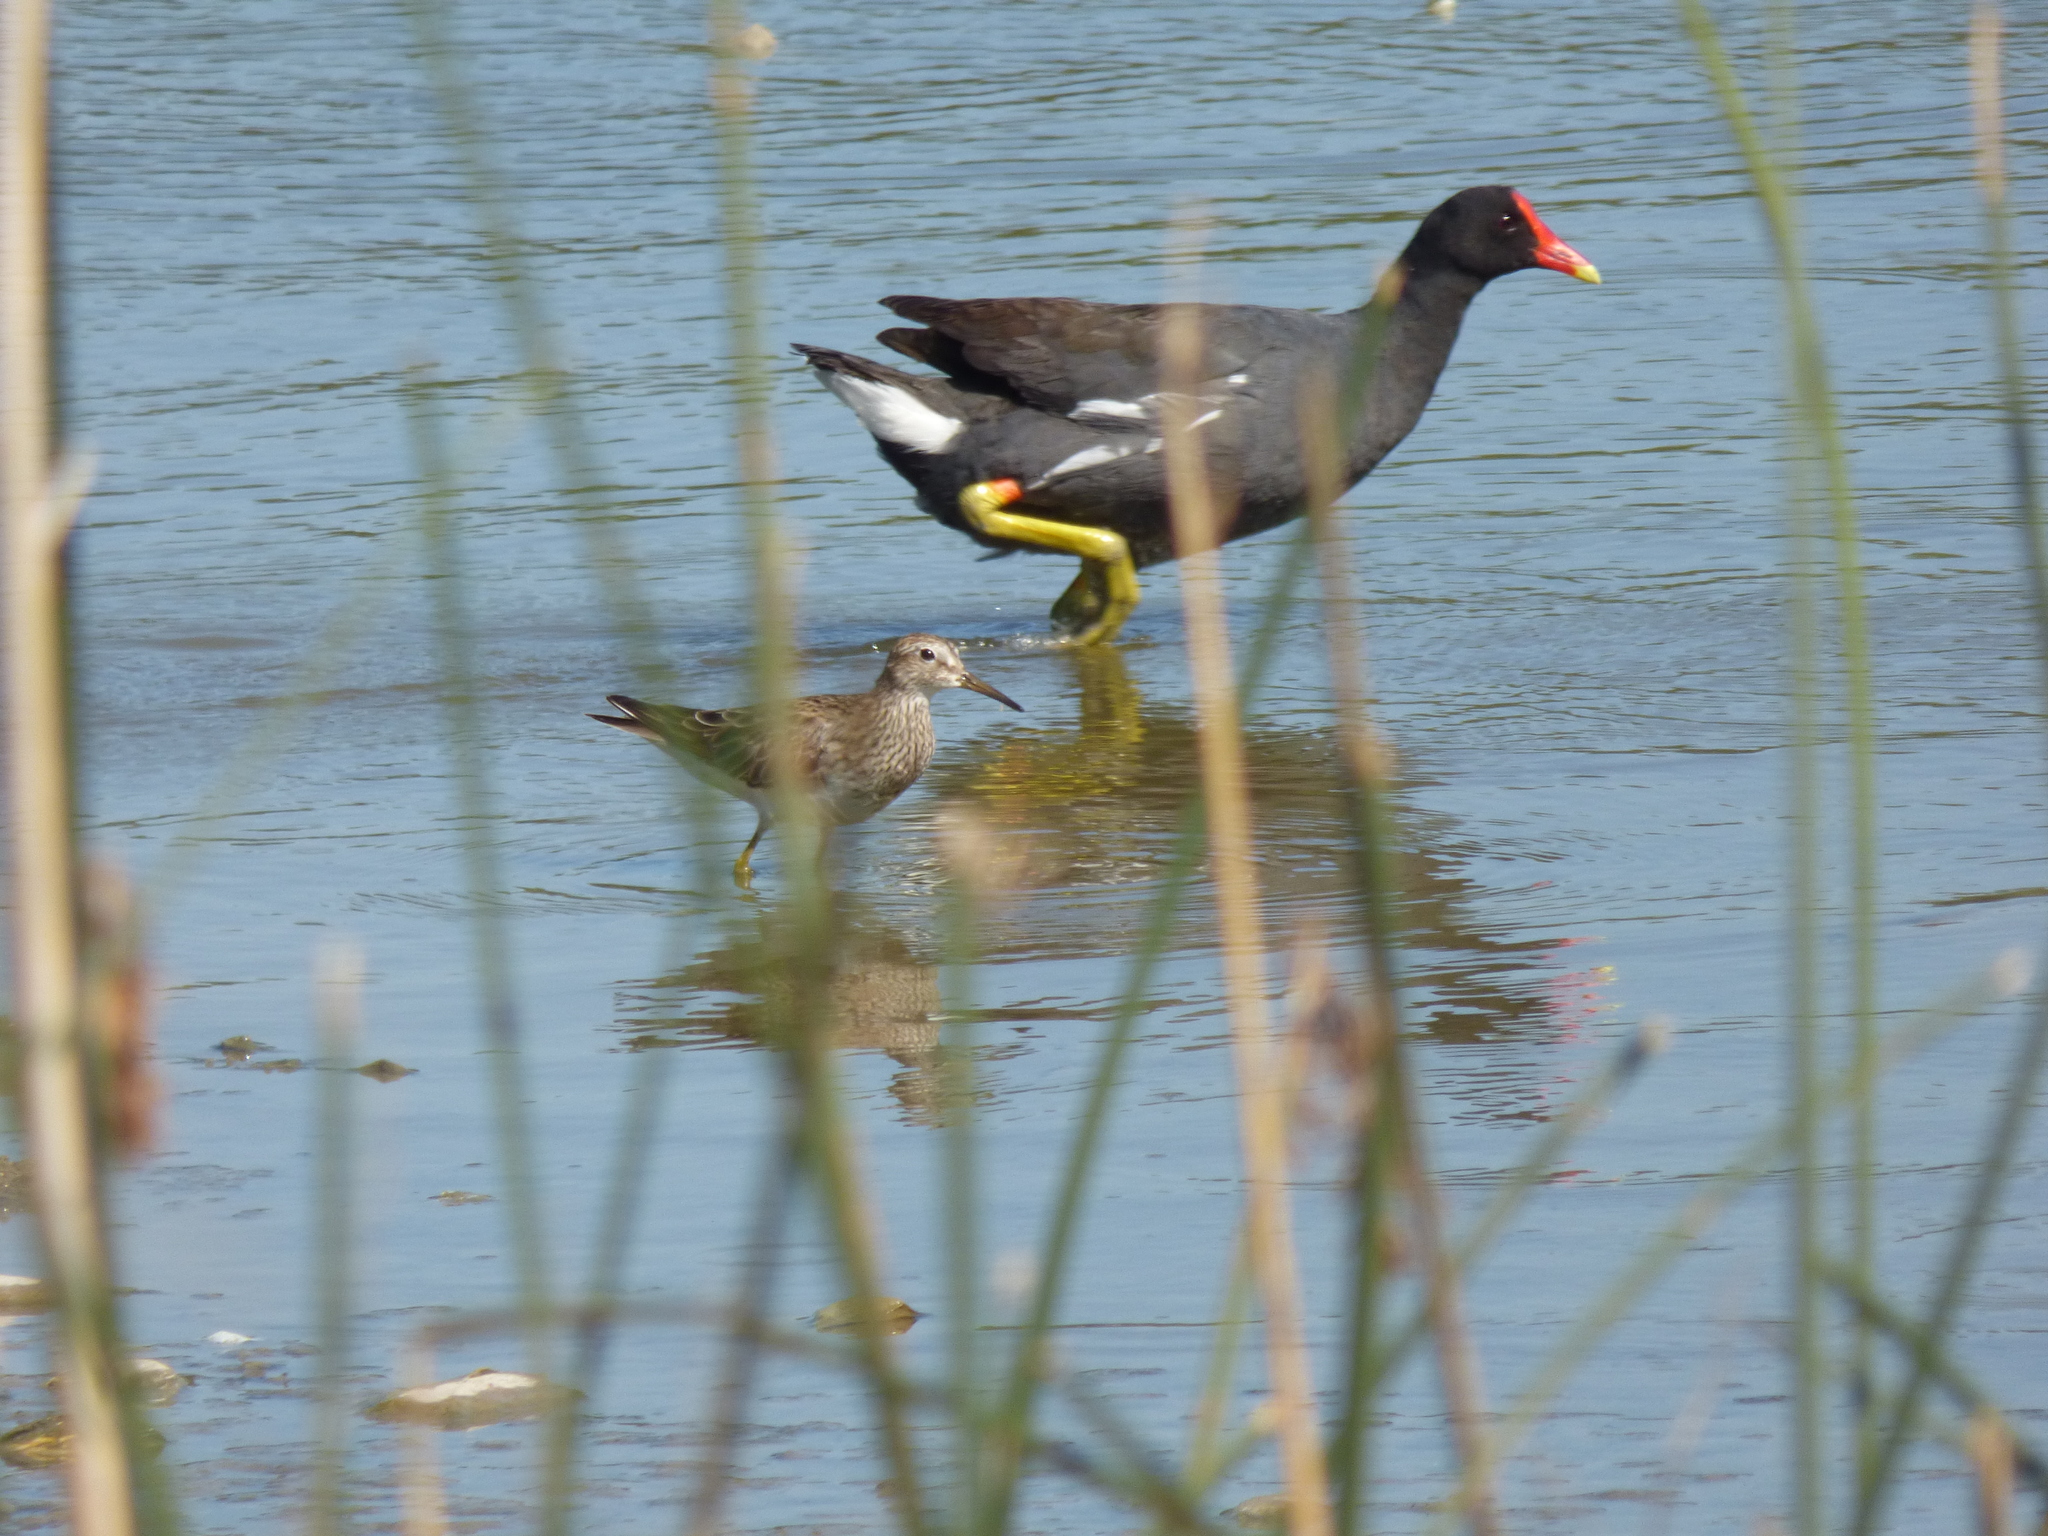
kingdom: Animalia
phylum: Chordata
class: Aves
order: Gruiformes
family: Rallidae
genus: Gallinula
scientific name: Gallinula chloropus
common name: Common moorhen
